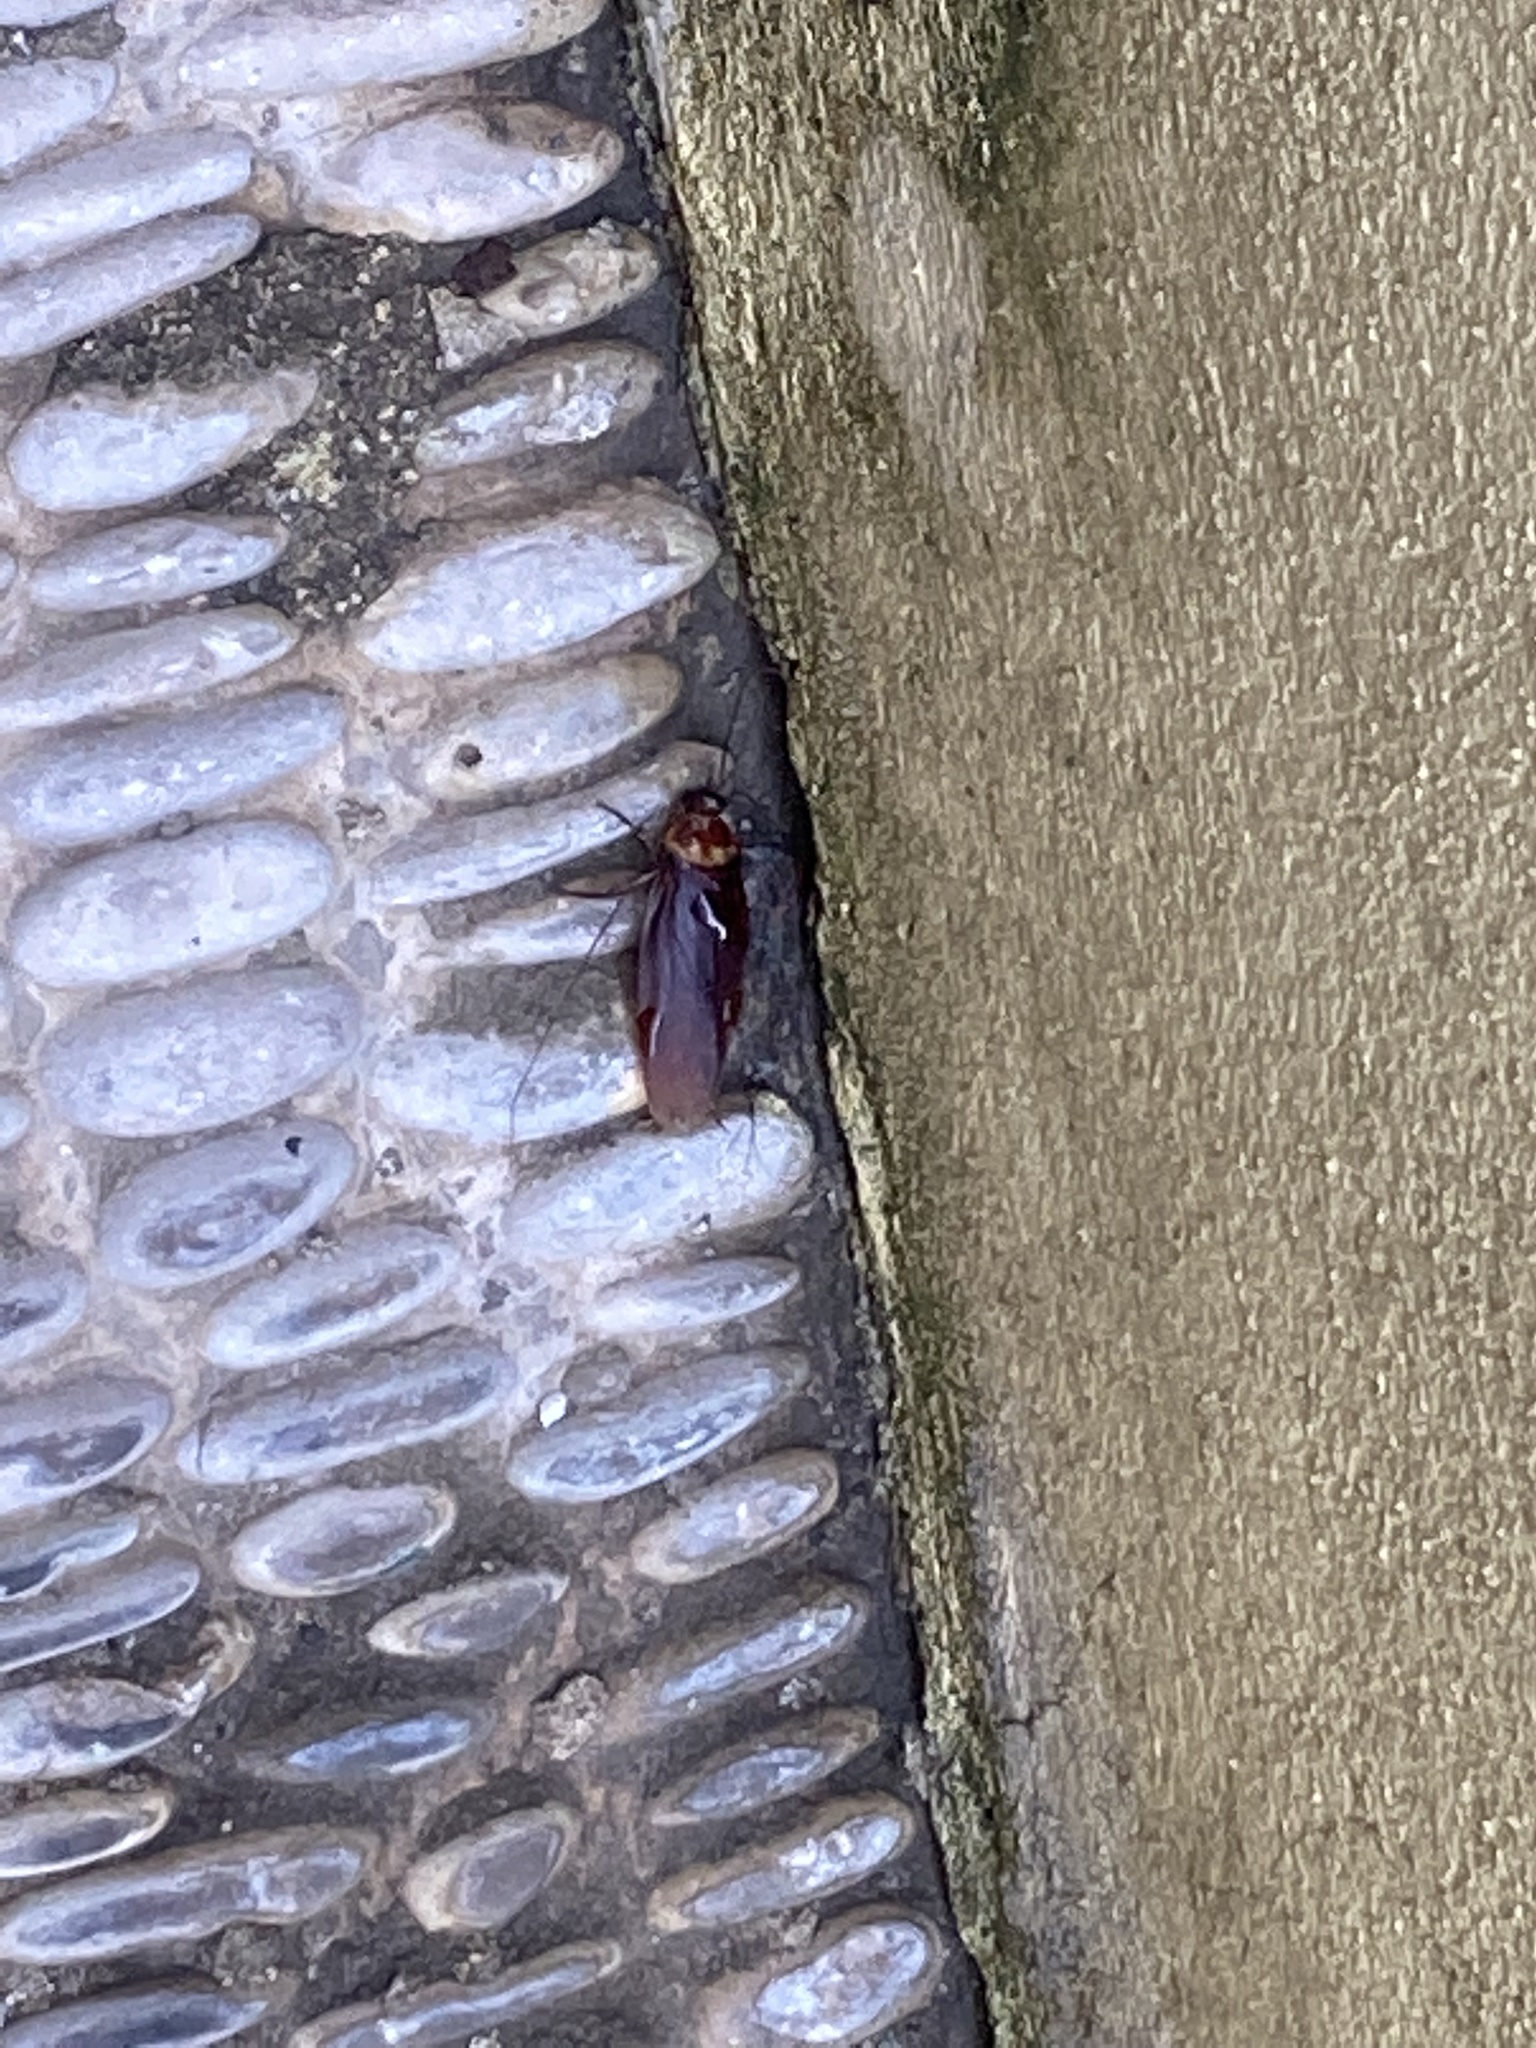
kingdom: Animalia
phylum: Arthropoda
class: Insecta
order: Blattodea
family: Blattidae
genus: Periplaneta
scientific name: Periplaneta americana
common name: American cockroach
